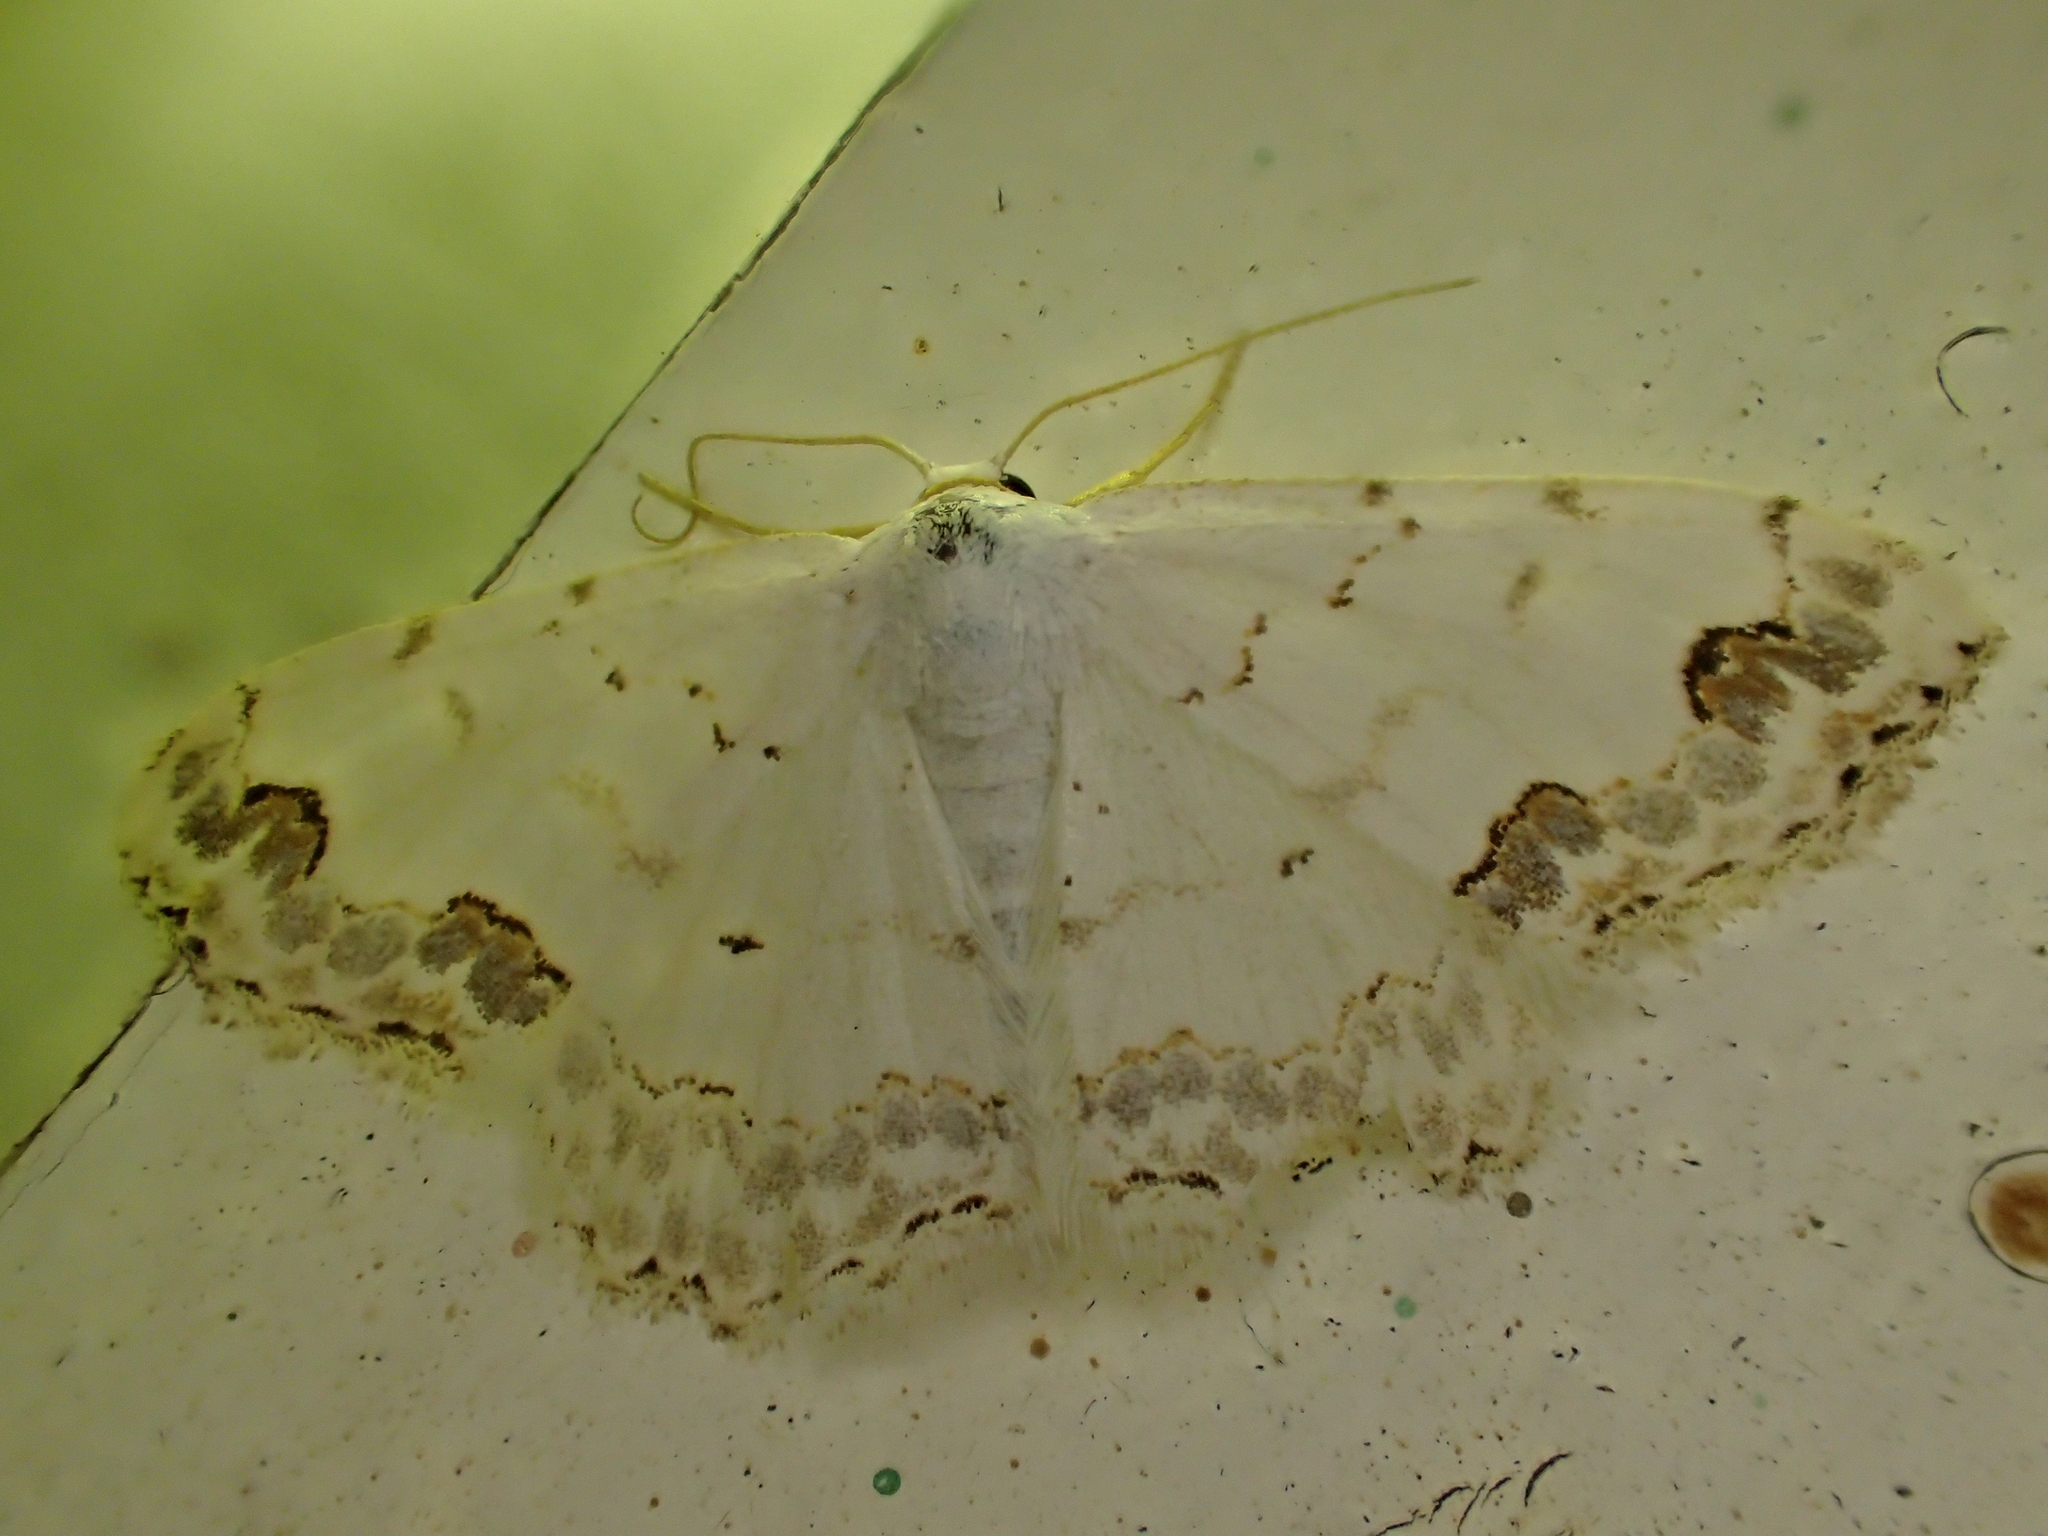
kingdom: Animalia
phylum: Arthropoda
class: Insecta
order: Lepidoptera
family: Geometridae
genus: Scopula
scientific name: Scopula decorata
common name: Middle lace border
